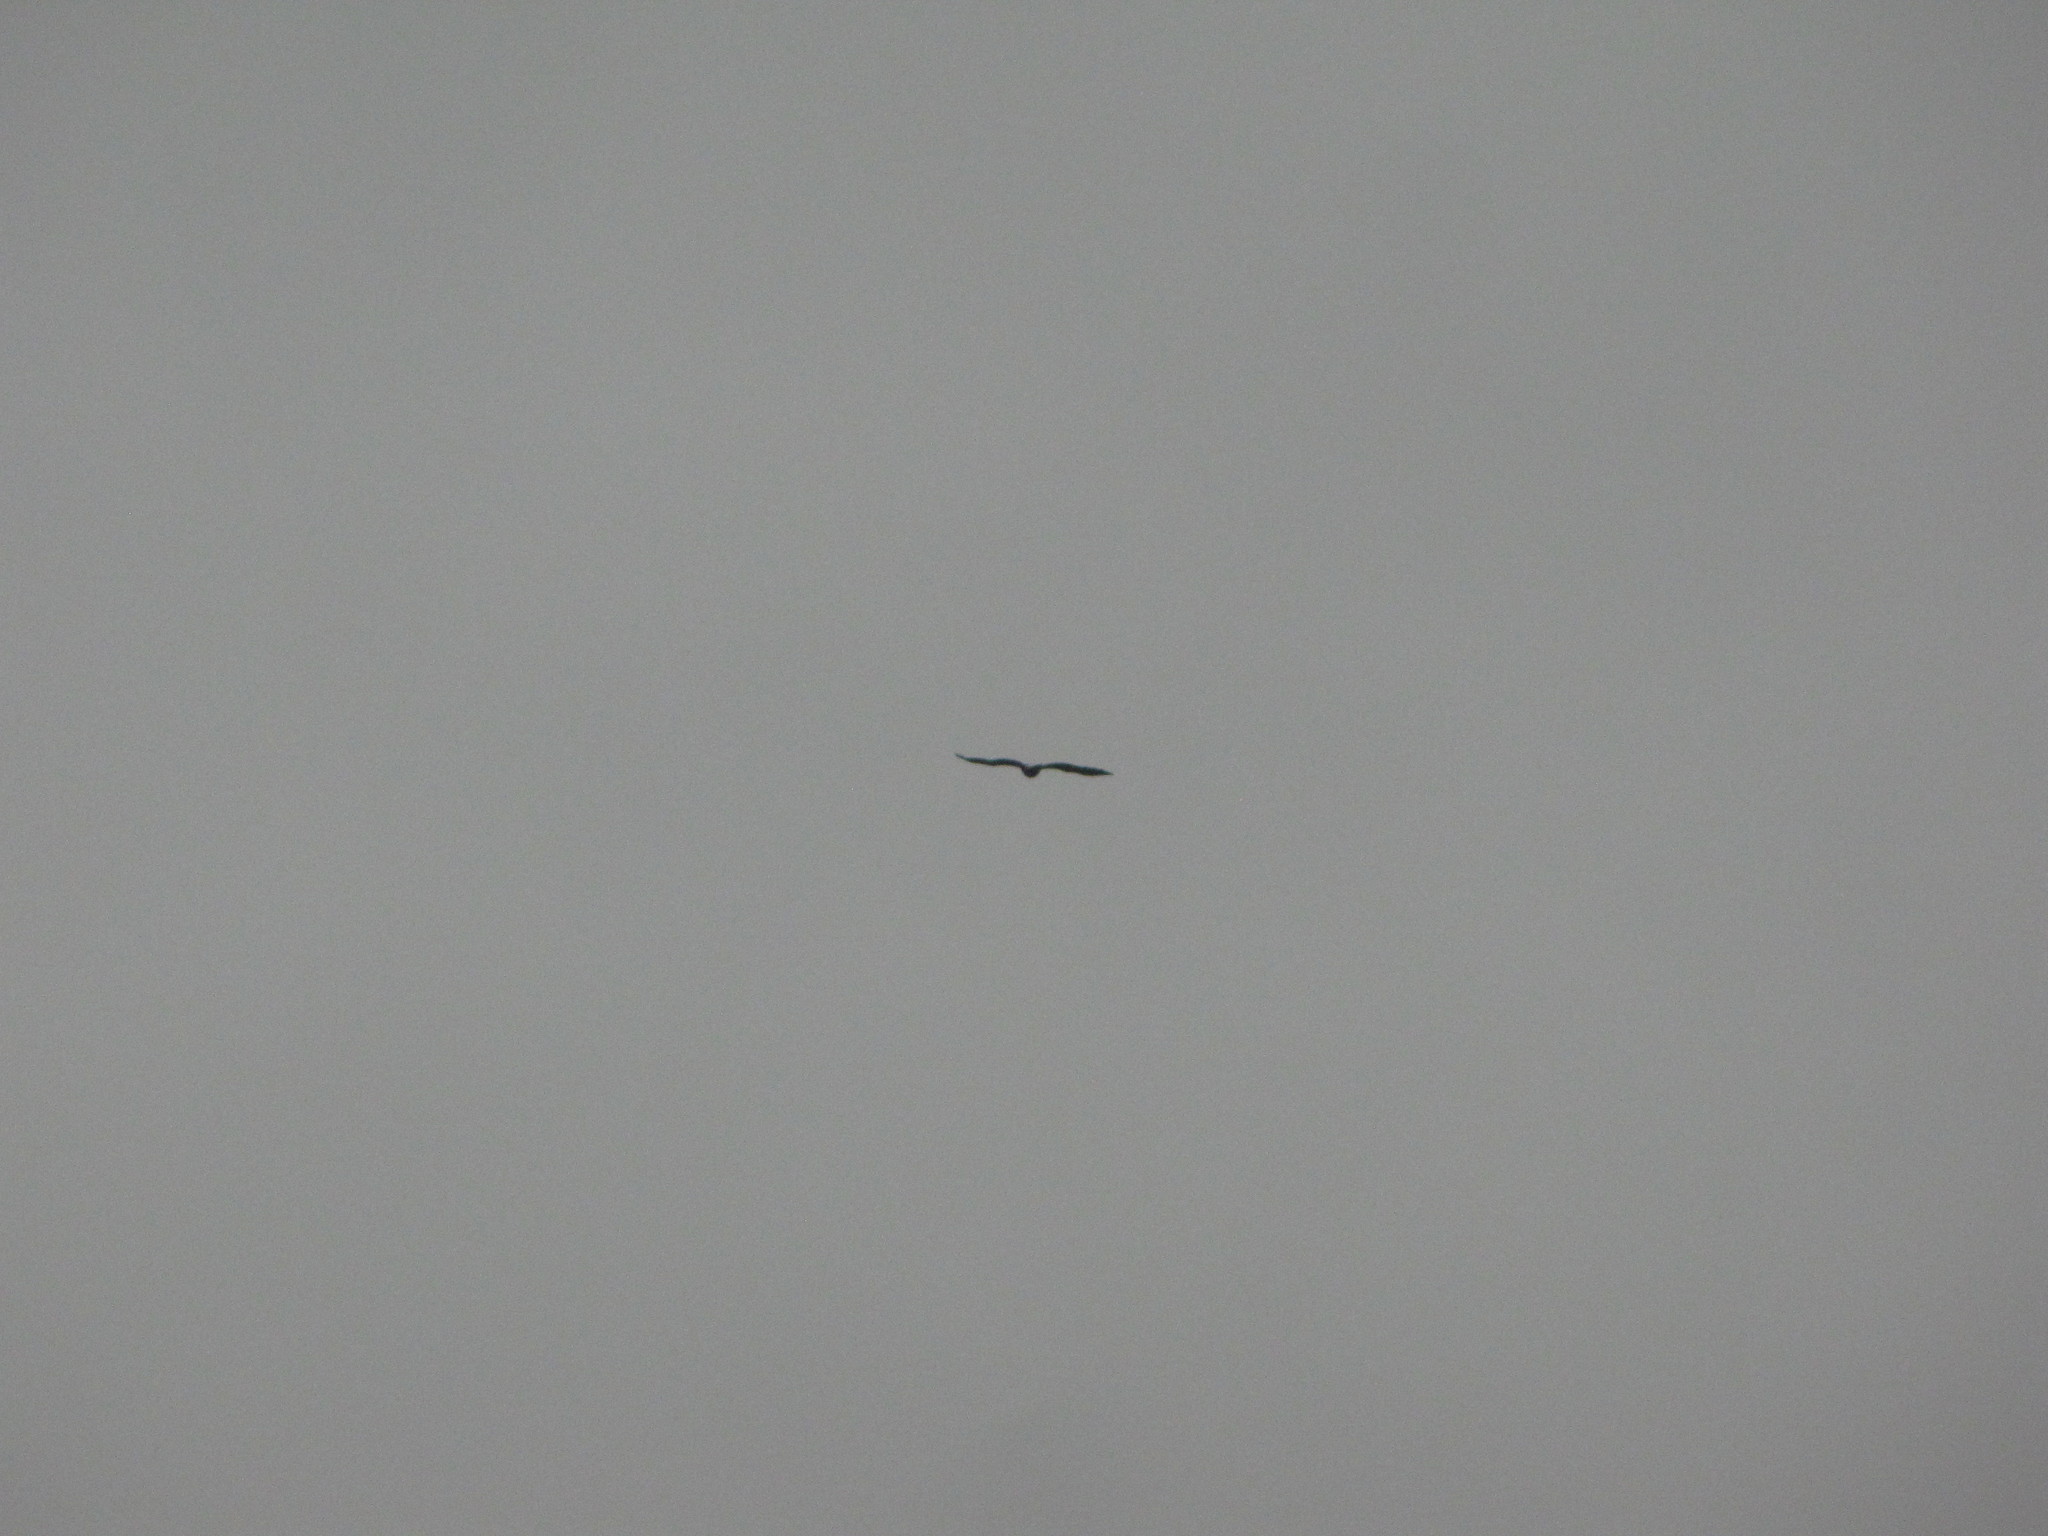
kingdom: Animalia
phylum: Chordata
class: Aves
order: Accipitriformes
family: Accipitridae
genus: Haliaeetus
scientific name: Haliaeetus leucocephalus
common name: Bald eagle
